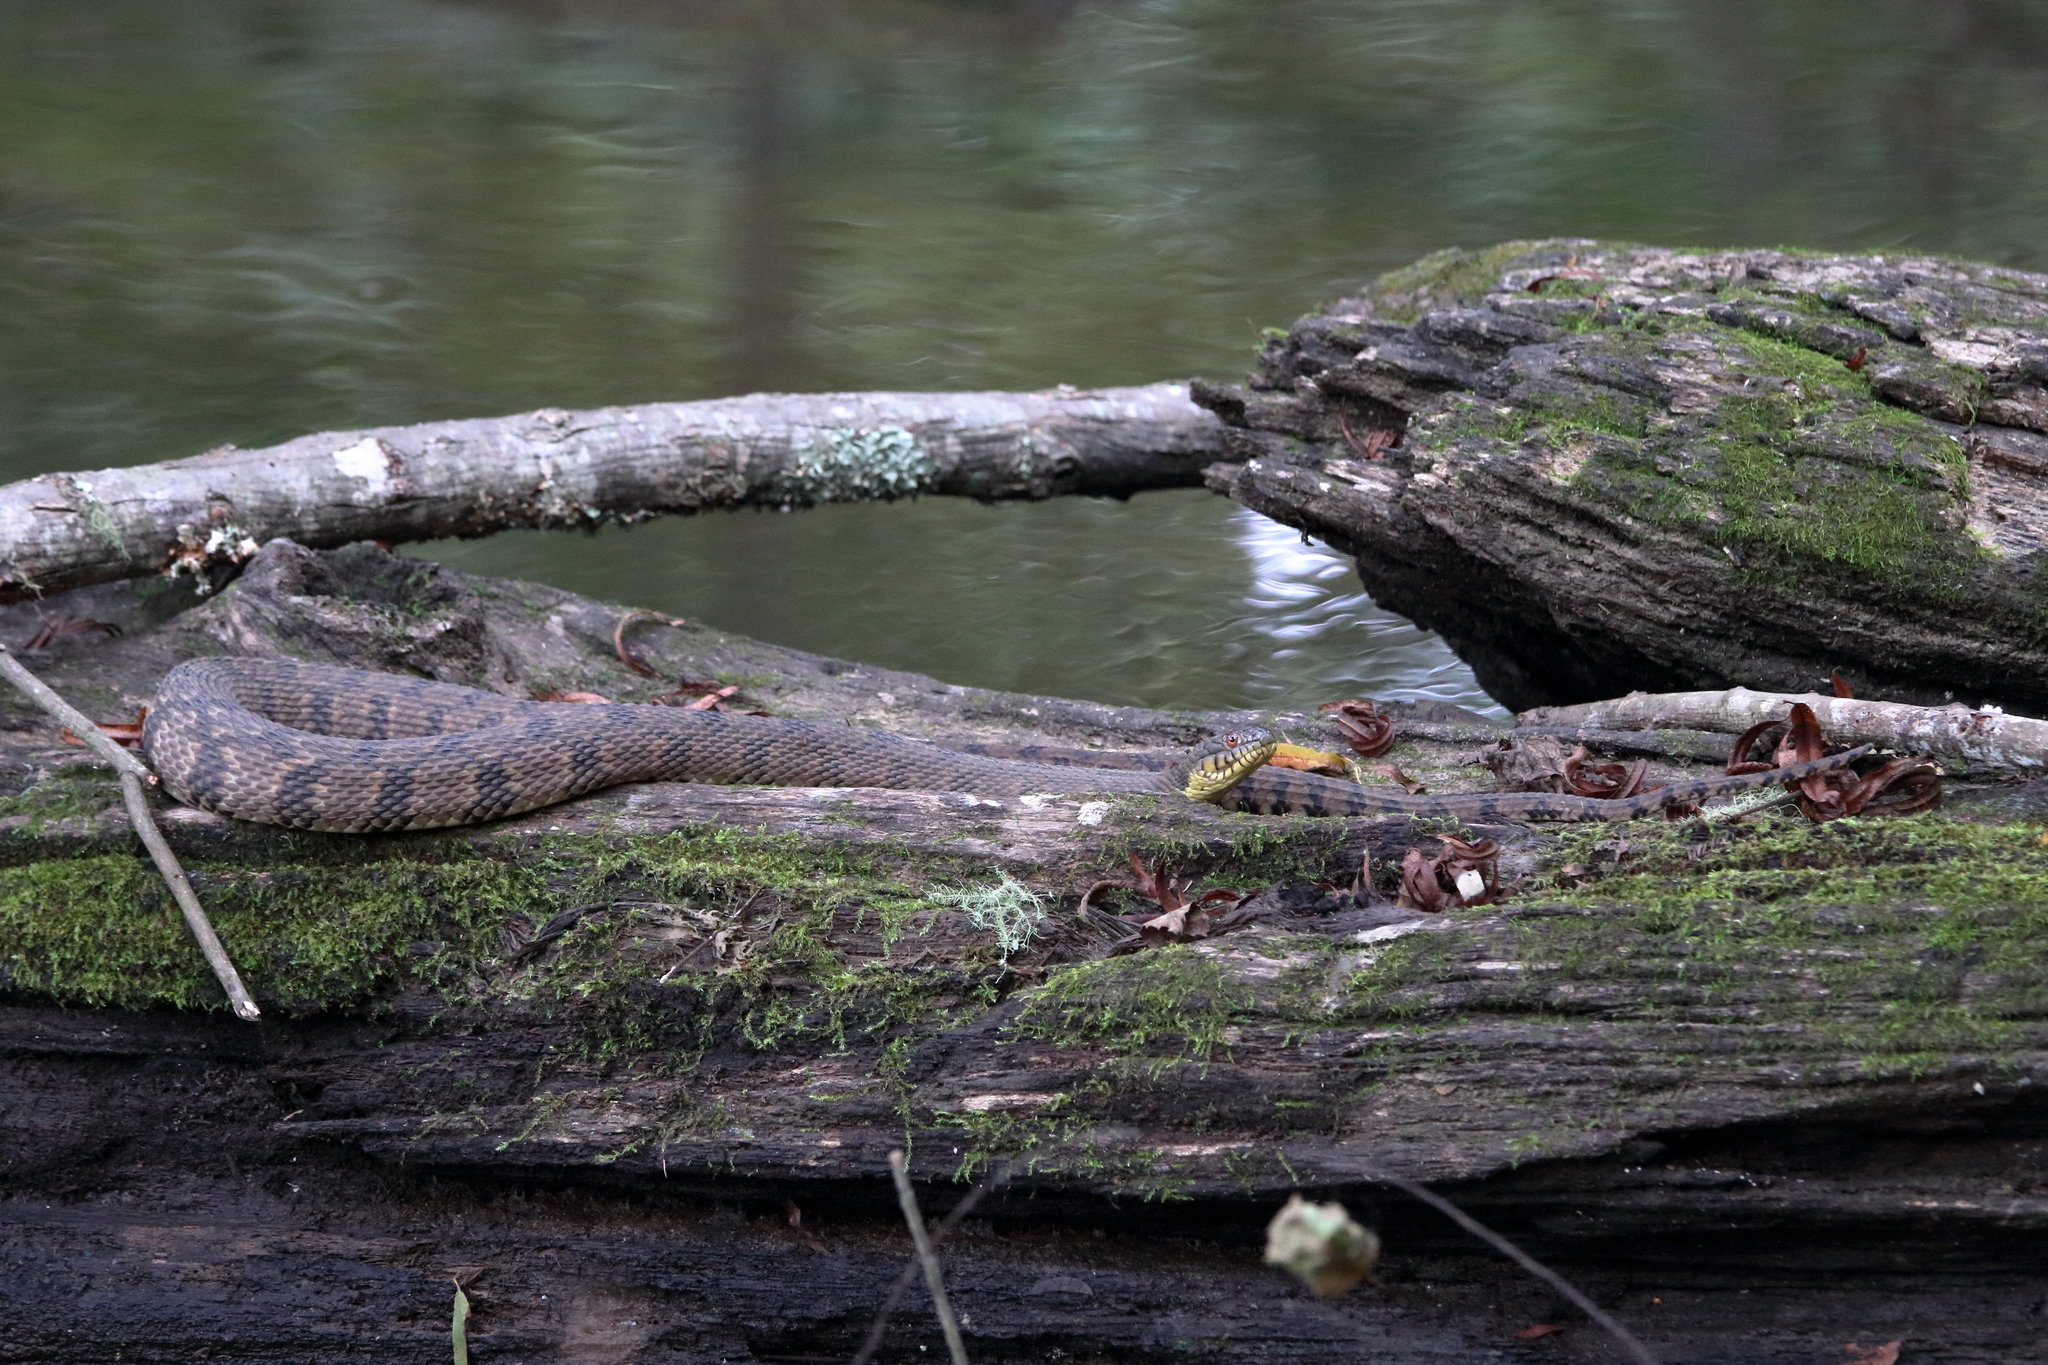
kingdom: Animalia
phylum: Chordata
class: Squamata
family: Colubridae
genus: Nerodia
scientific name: Nerodia rhombifer
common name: Diamondback water snake
